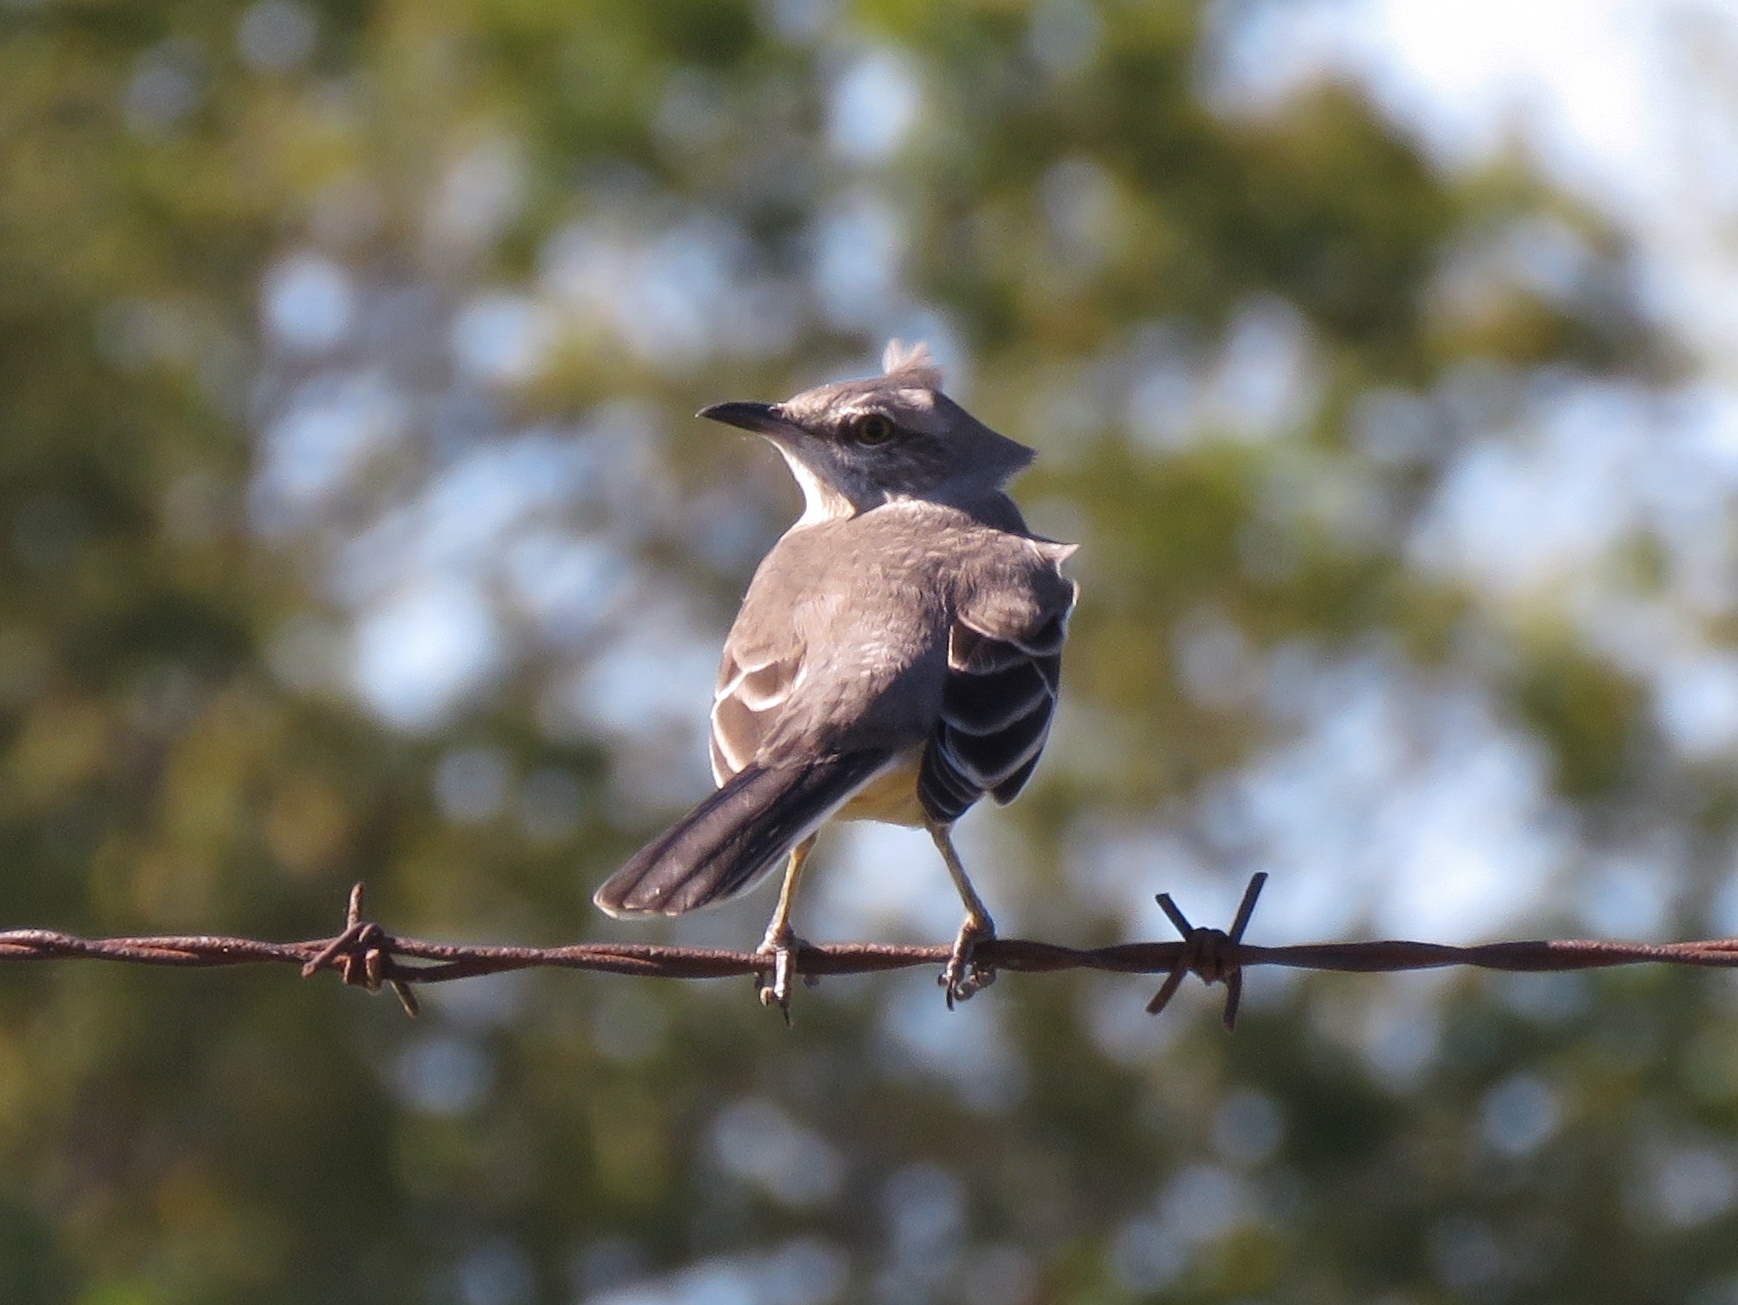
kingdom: Animalia
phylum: Chordata
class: Aves
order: Passeriformes
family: Mimidae
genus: Mimus
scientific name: Mimus polyglottos
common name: Northern mockingbird
